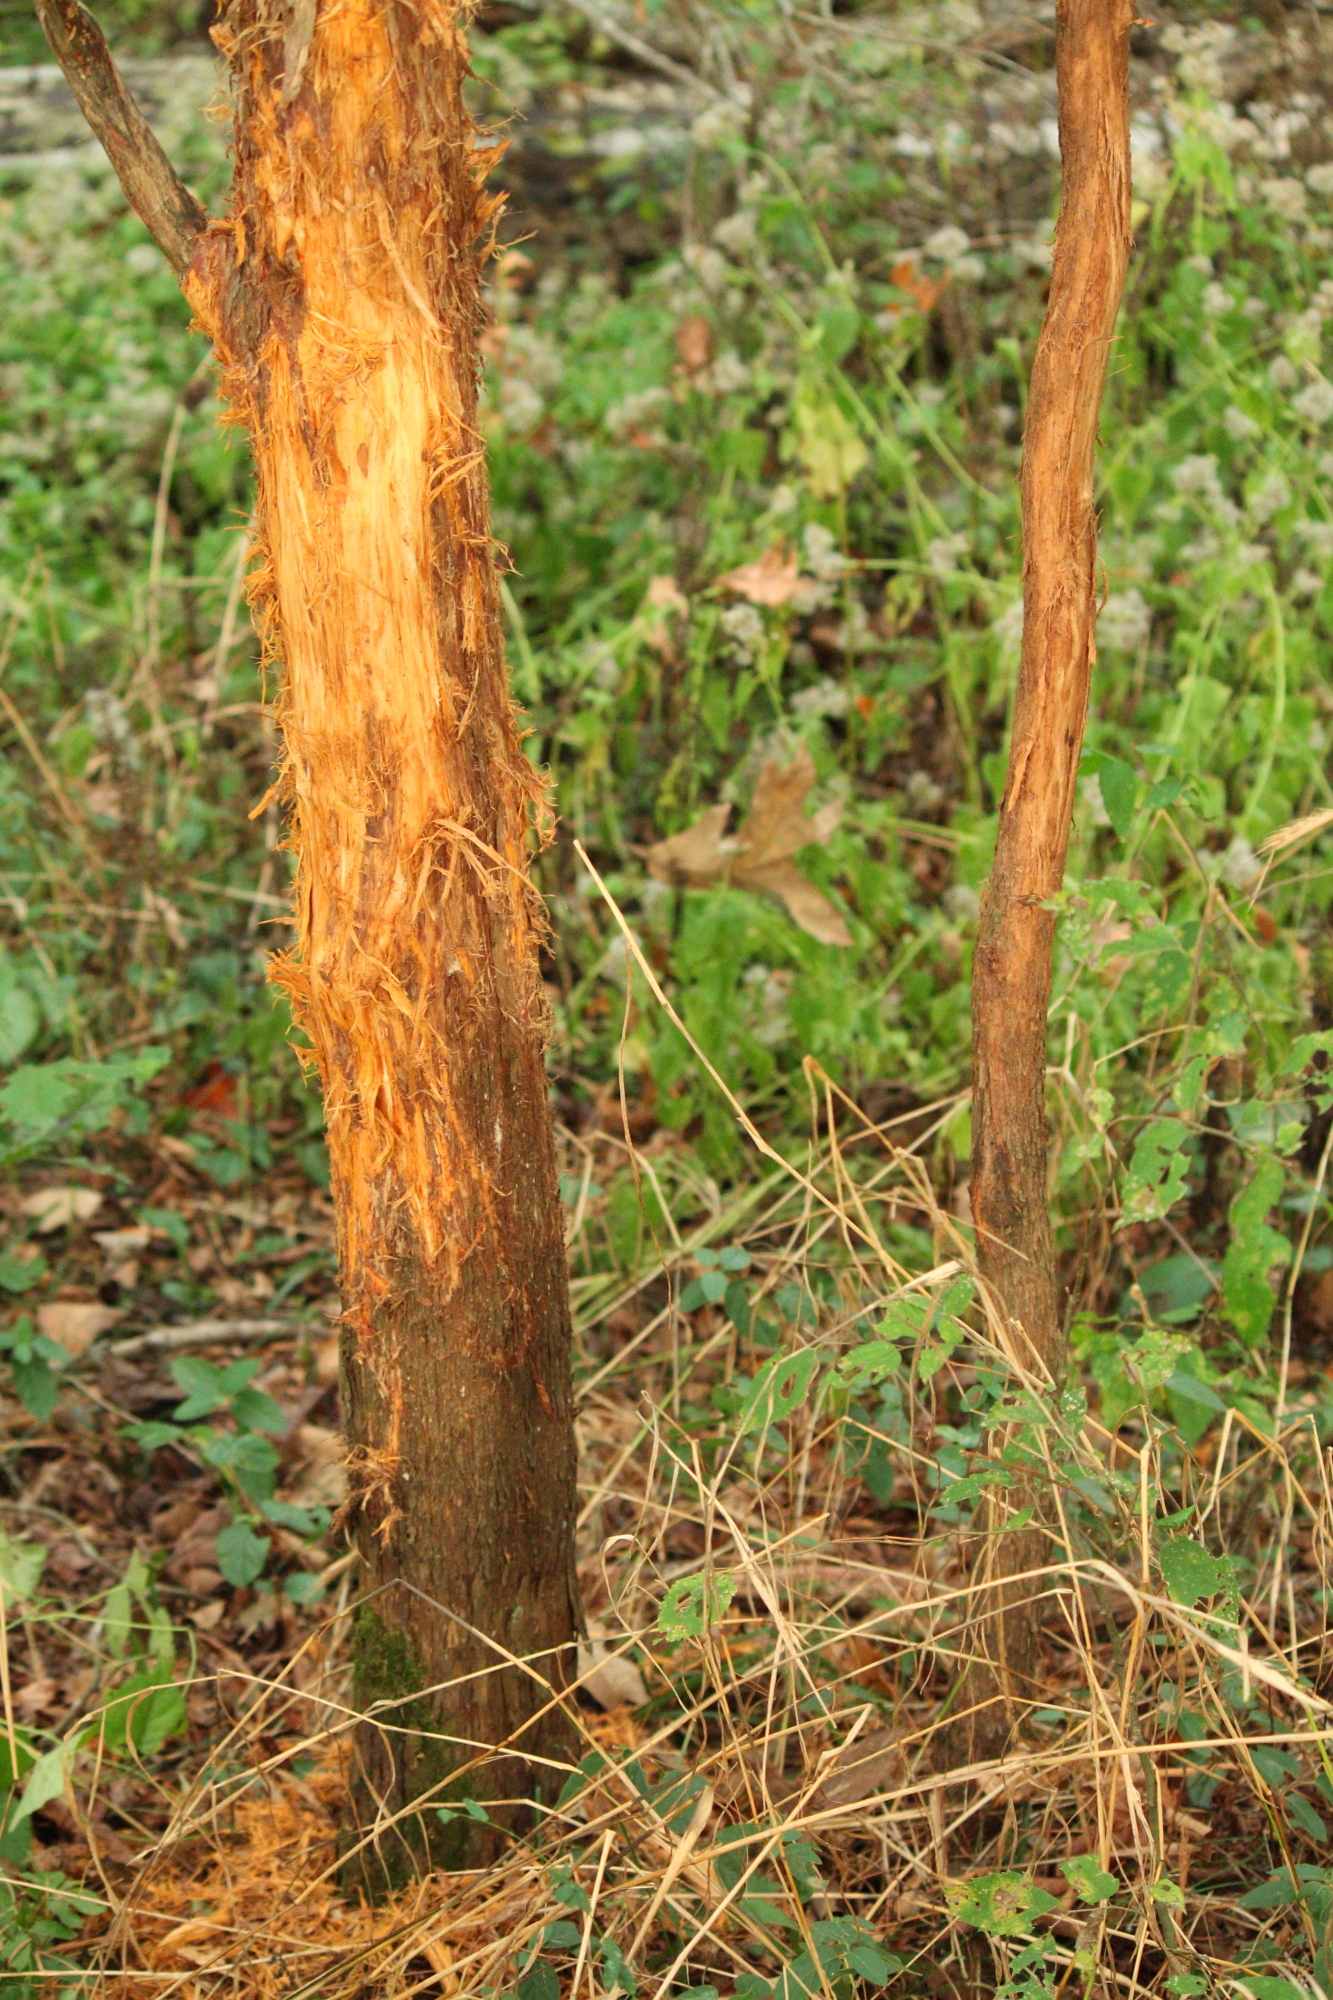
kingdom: Animalia
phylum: Chordata
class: Mammalia
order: Artiodactyla
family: Cervidae
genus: Odocoileus
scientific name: Odocoileus virginianus
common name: White-tailed deer
